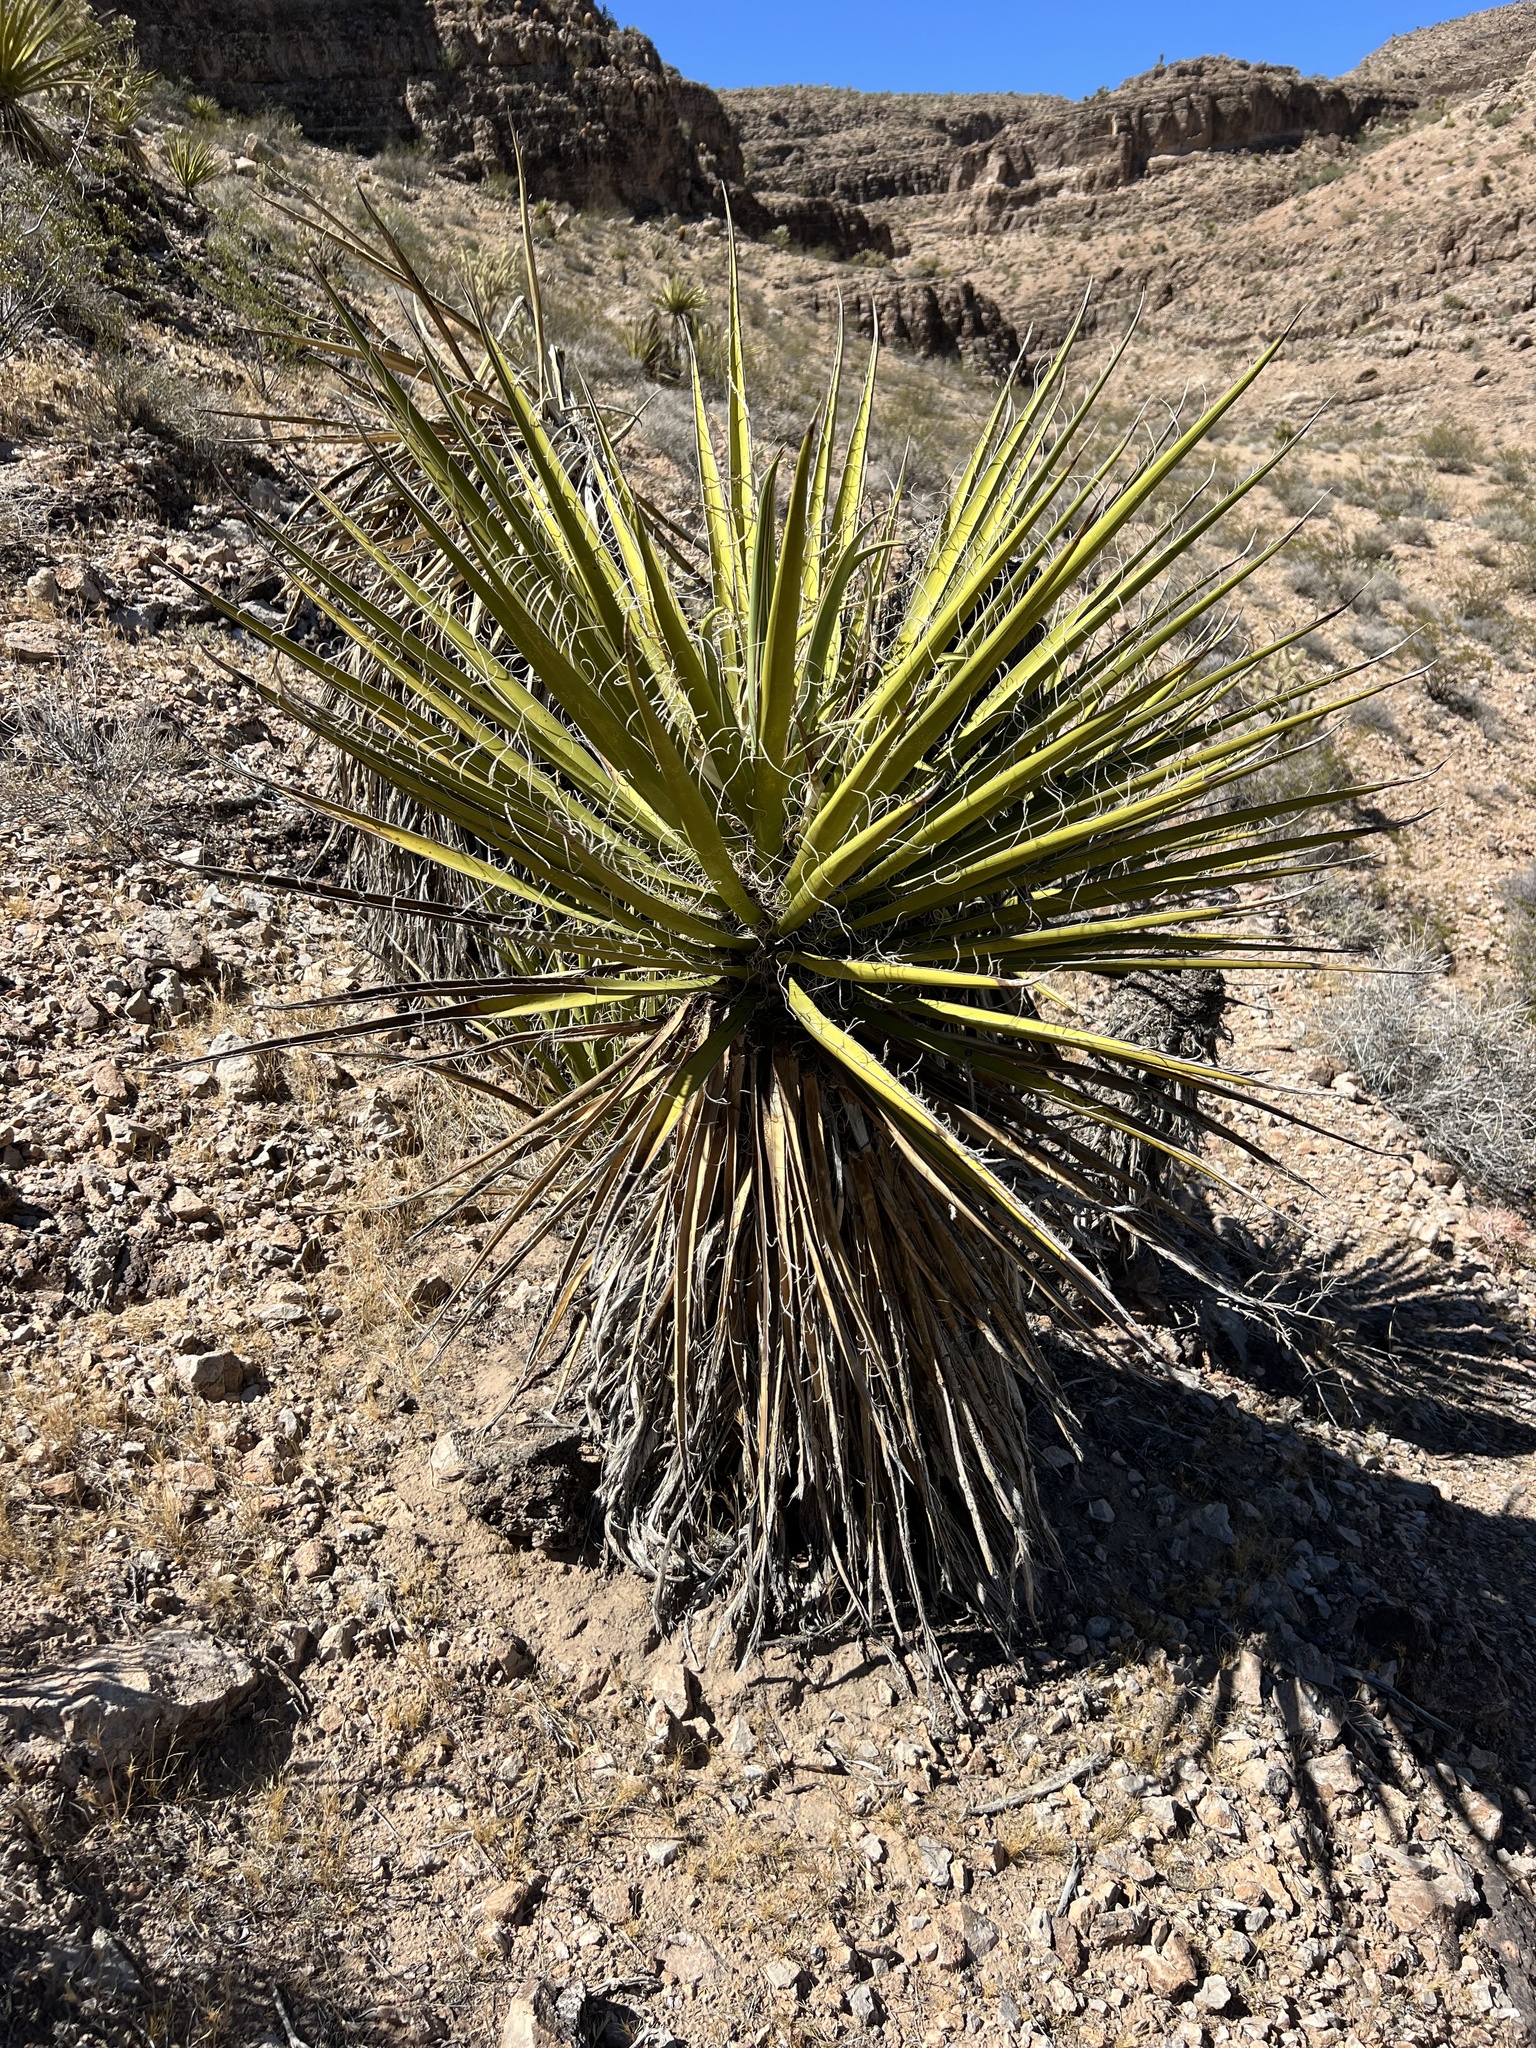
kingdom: Plantae
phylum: Tracheophyta
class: Liliopsida
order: Asparagales
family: Asparagaceae
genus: Yucca
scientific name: Yucca schidigera
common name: Mojave yucca
